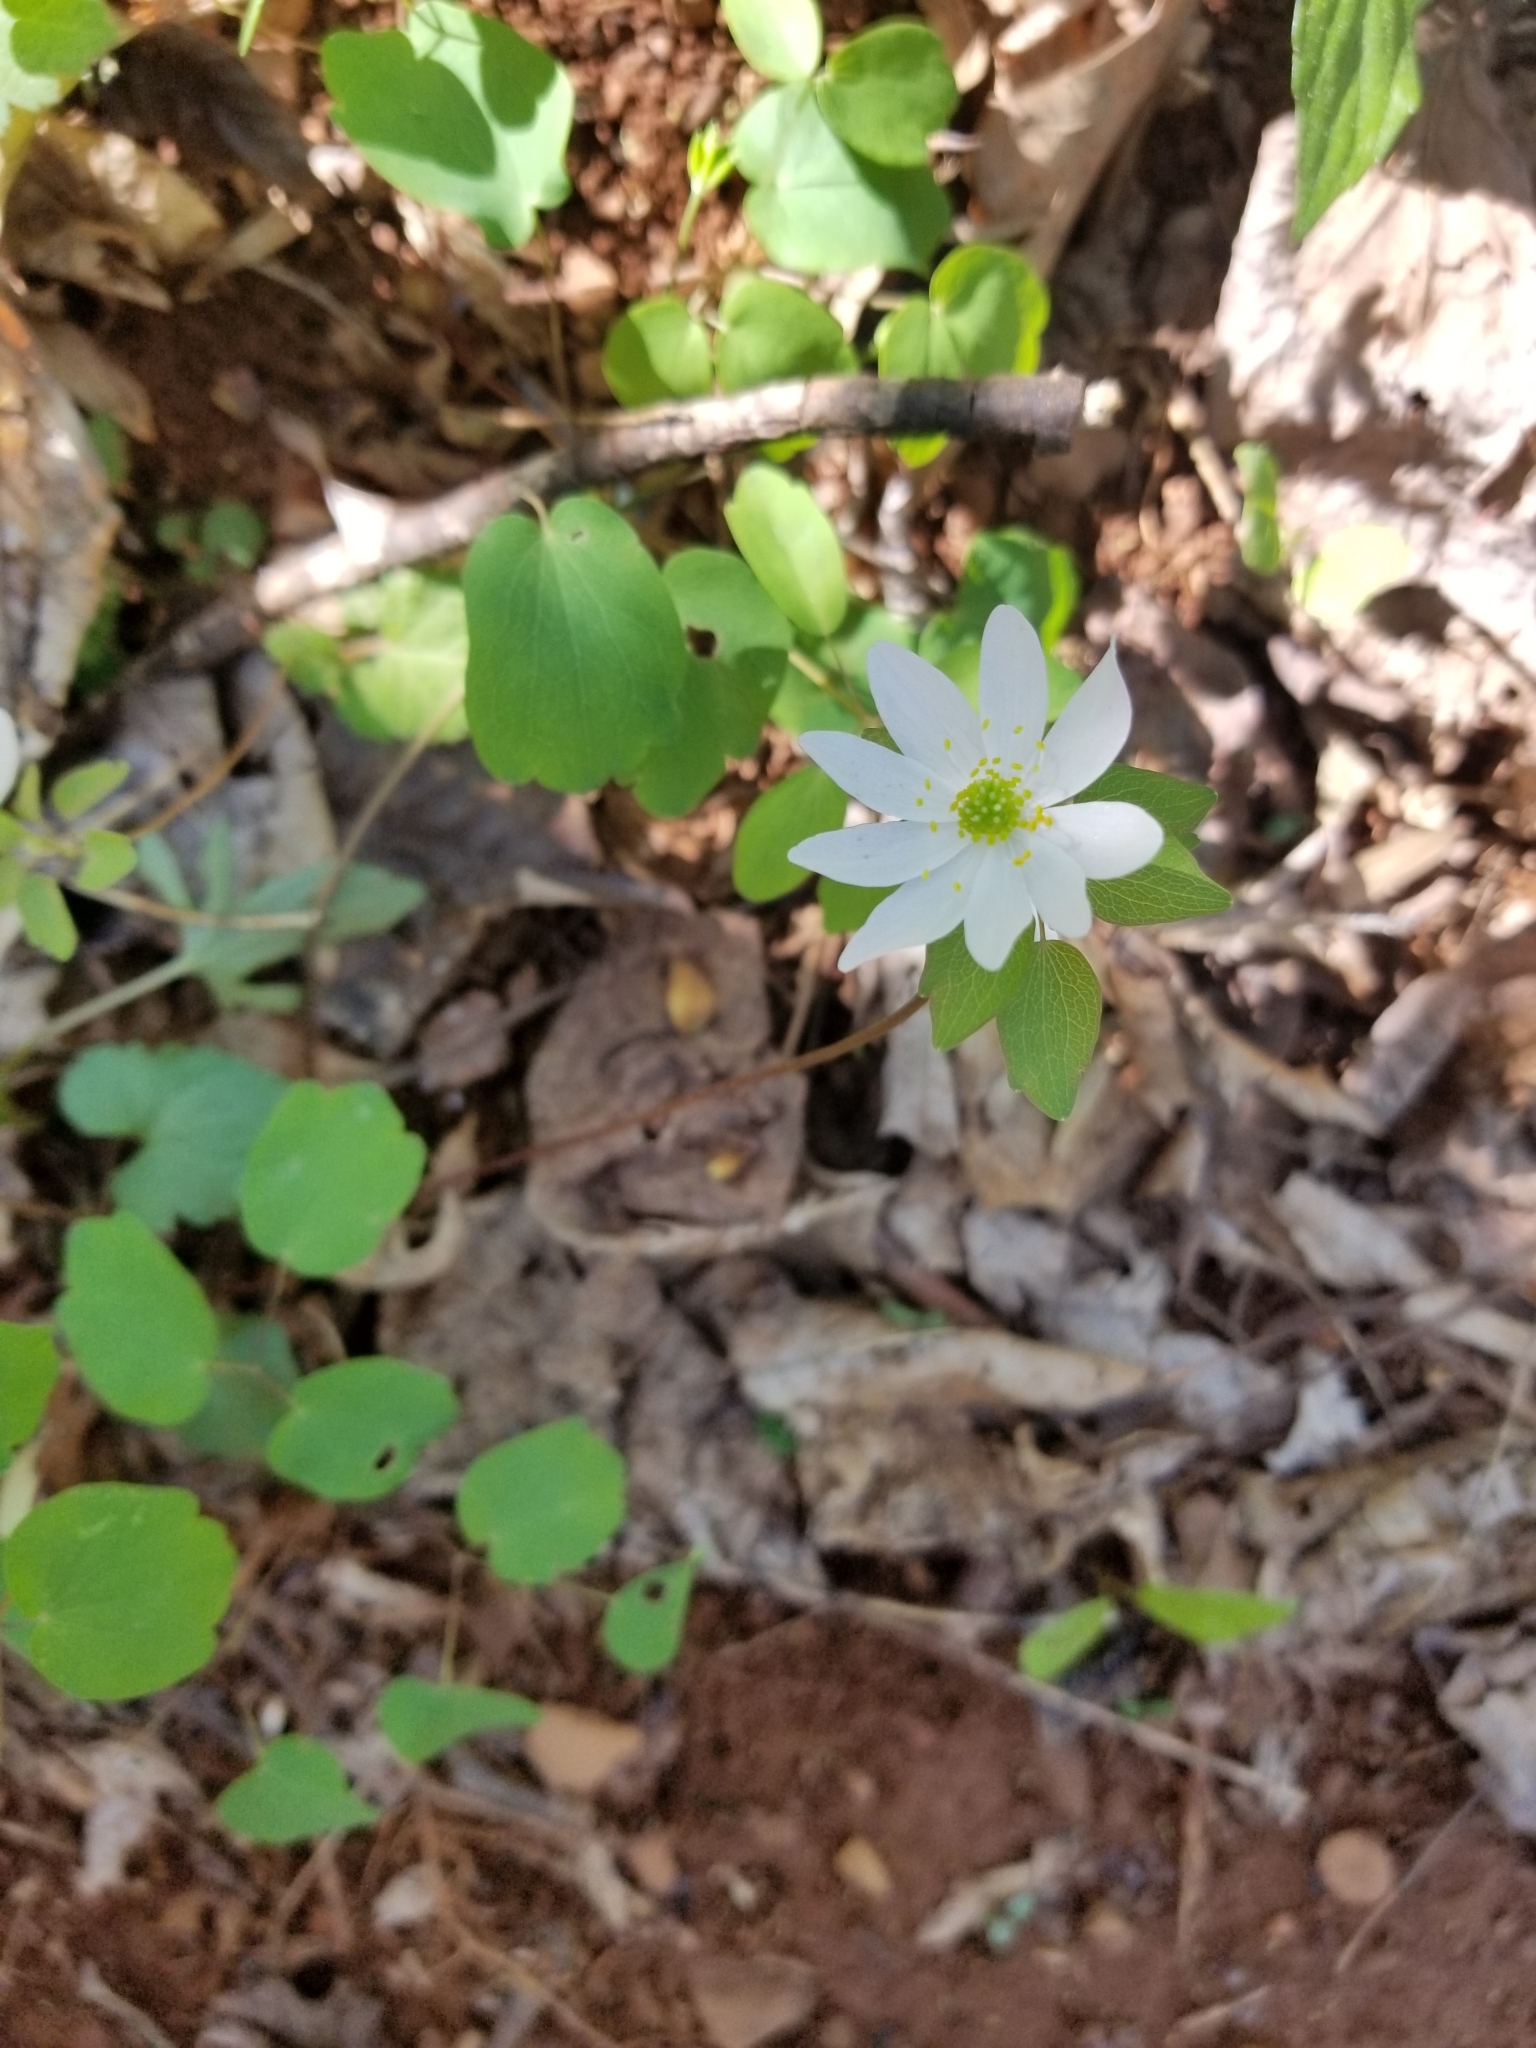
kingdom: Plantae
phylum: Tracheophyta
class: Magnoliopsida
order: Ranunculales
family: Ranunculaceae
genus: Thalictrum
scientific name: Thalictrum thalictroides
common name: Rue-anemone
